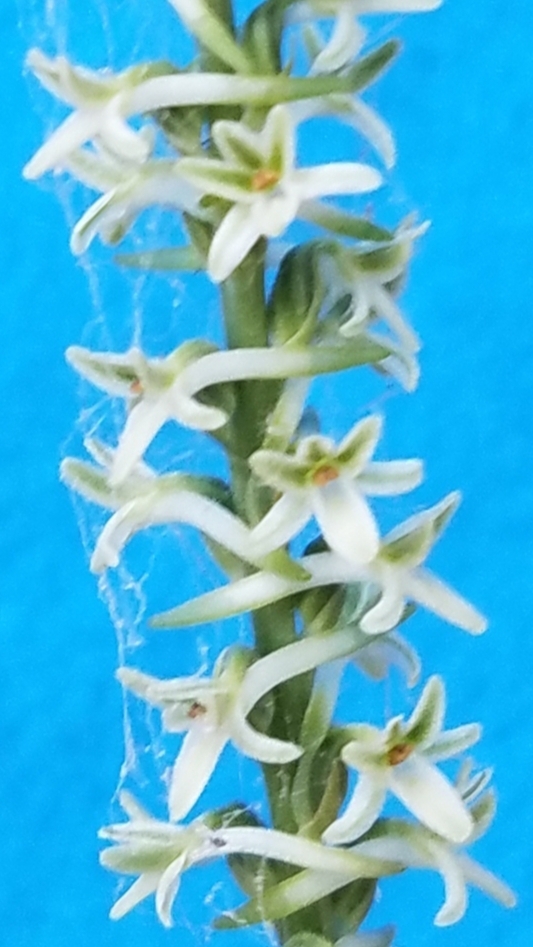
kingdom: Plantae
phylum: Tracheophyta
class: Liliopsida
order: Asparagales
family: Orchidaceae
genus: Platanthera
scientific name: Platanthera transversa
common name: Royal rein orchid
